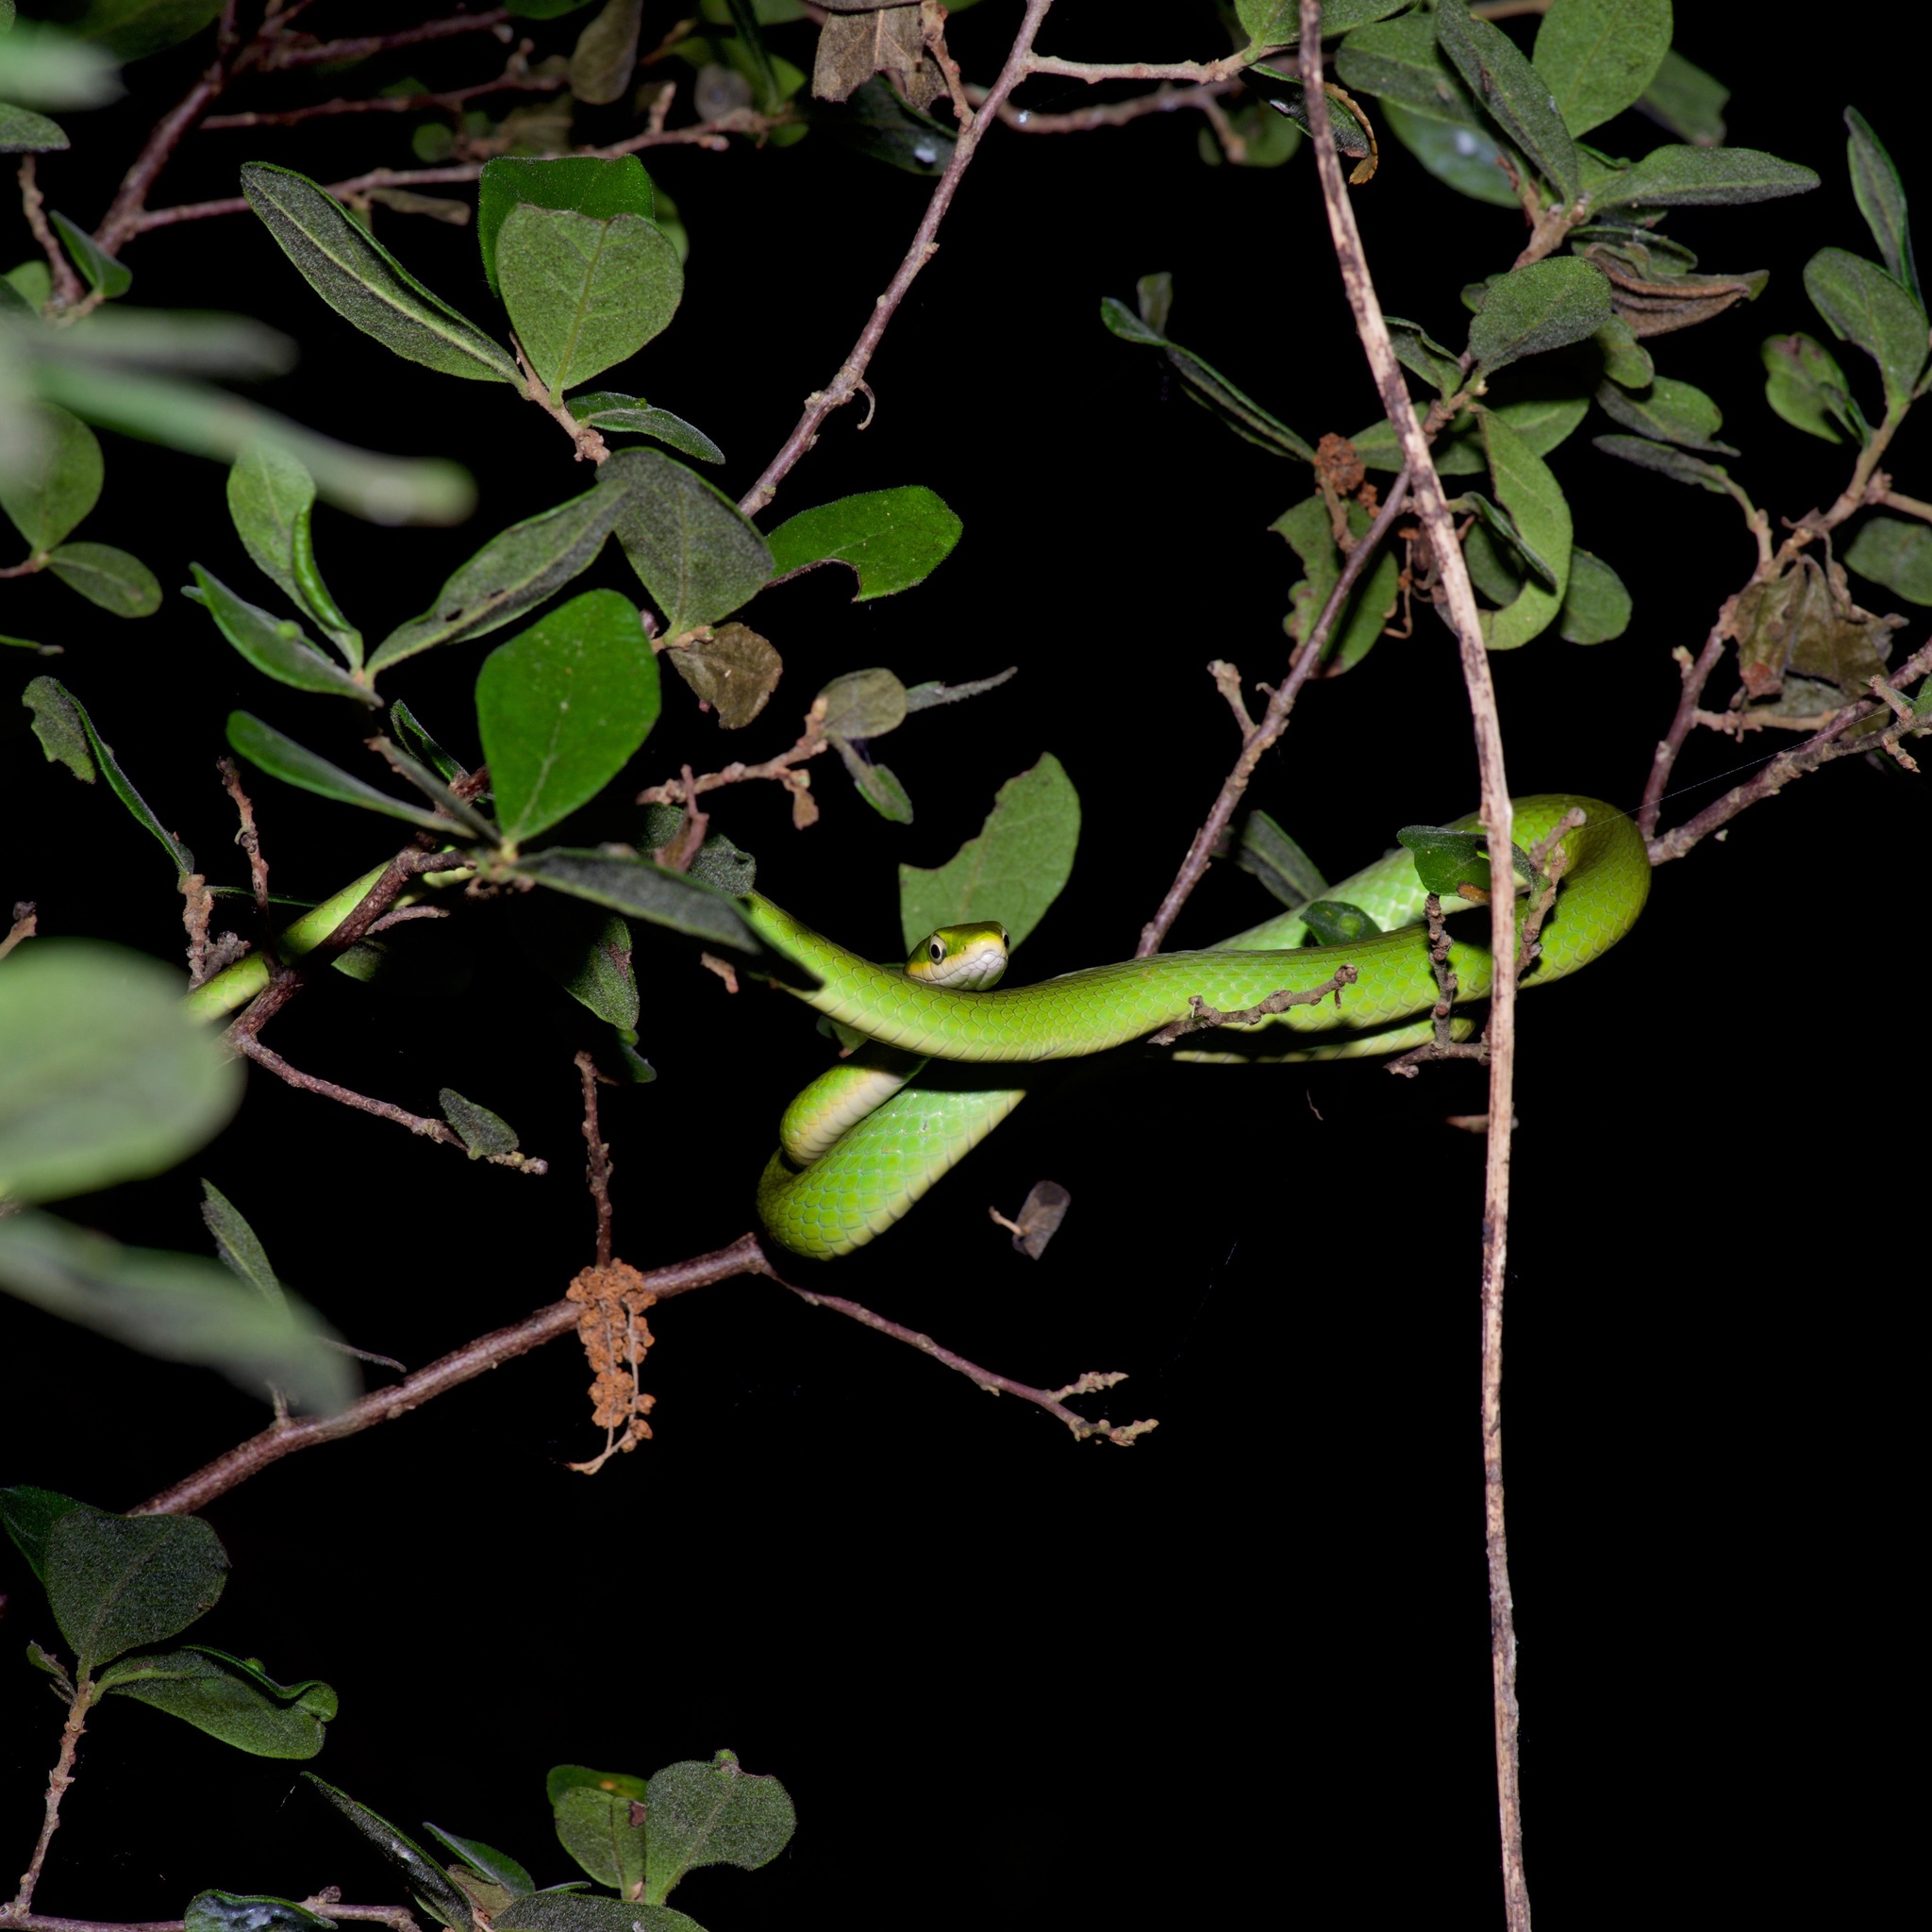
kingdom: Animalia
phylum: Chordata
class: Squamata
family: Colubridae
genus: Opheodrys
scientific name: Opheodrys aestivus
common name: Rough greensnake
